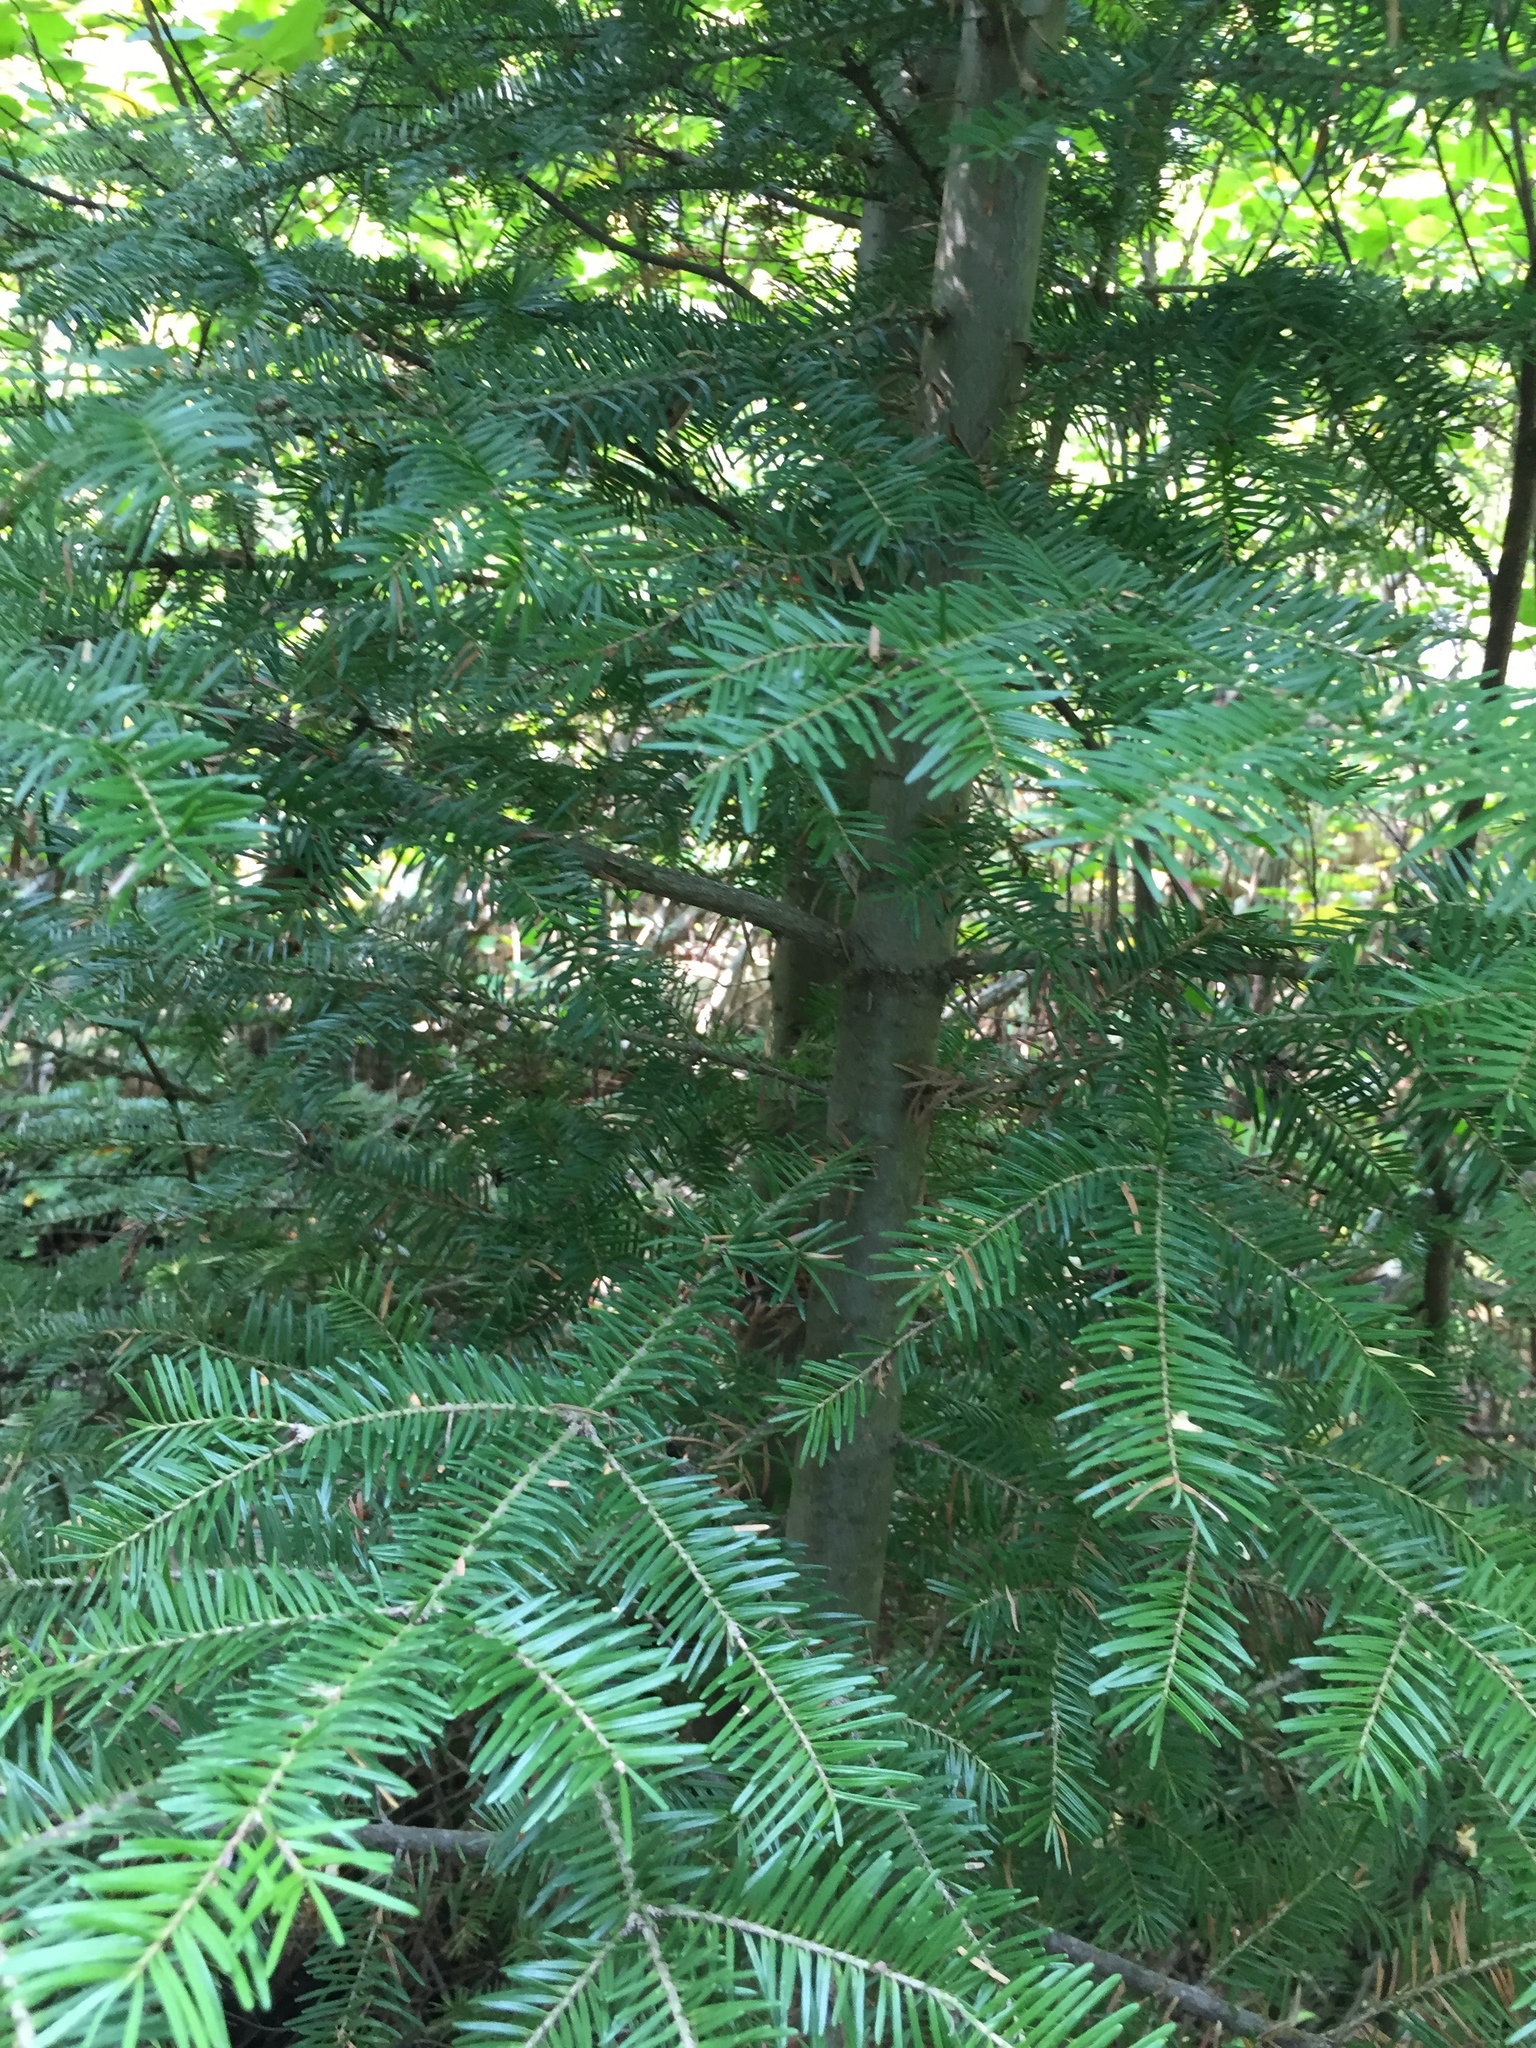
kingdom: Plantae
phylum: Tracheophyta
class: Pinopsida
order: Pinales
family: Pinaceae
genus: Abies
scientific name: Abies balsamea
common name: Balsam fir
